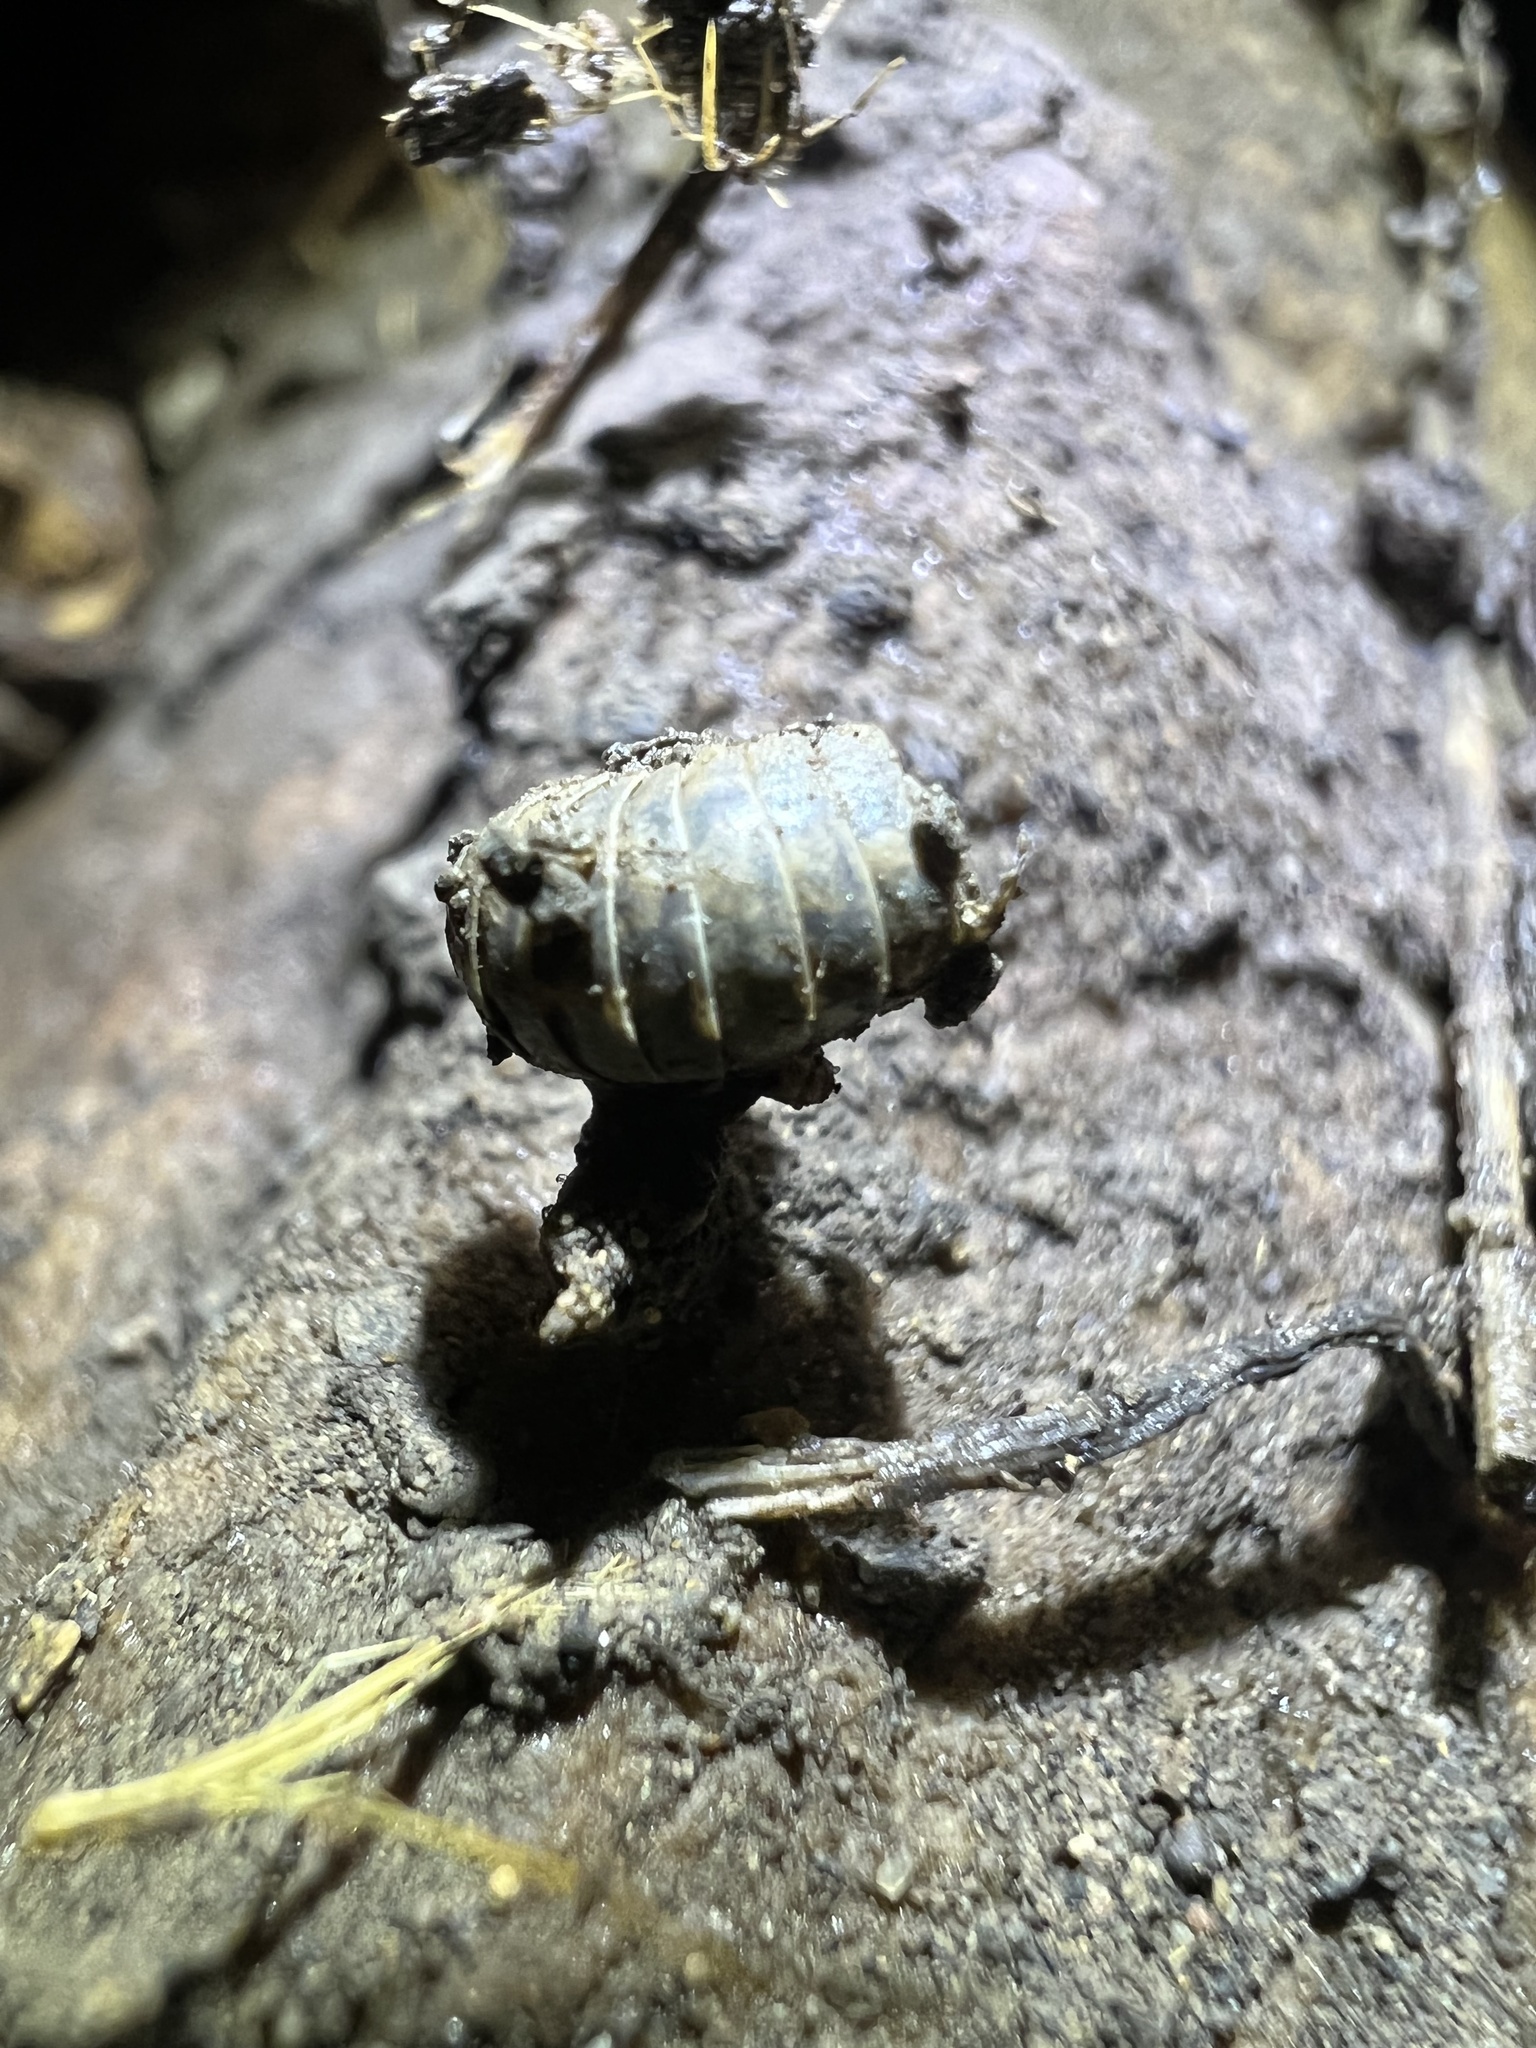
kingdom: Animalia
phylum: Arthropoda
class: Malacostraca
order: Isopoda
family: Armadillidiidae
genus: Armadillidium
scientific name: Armadillidium vulgare
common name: Common pill woodlouse
